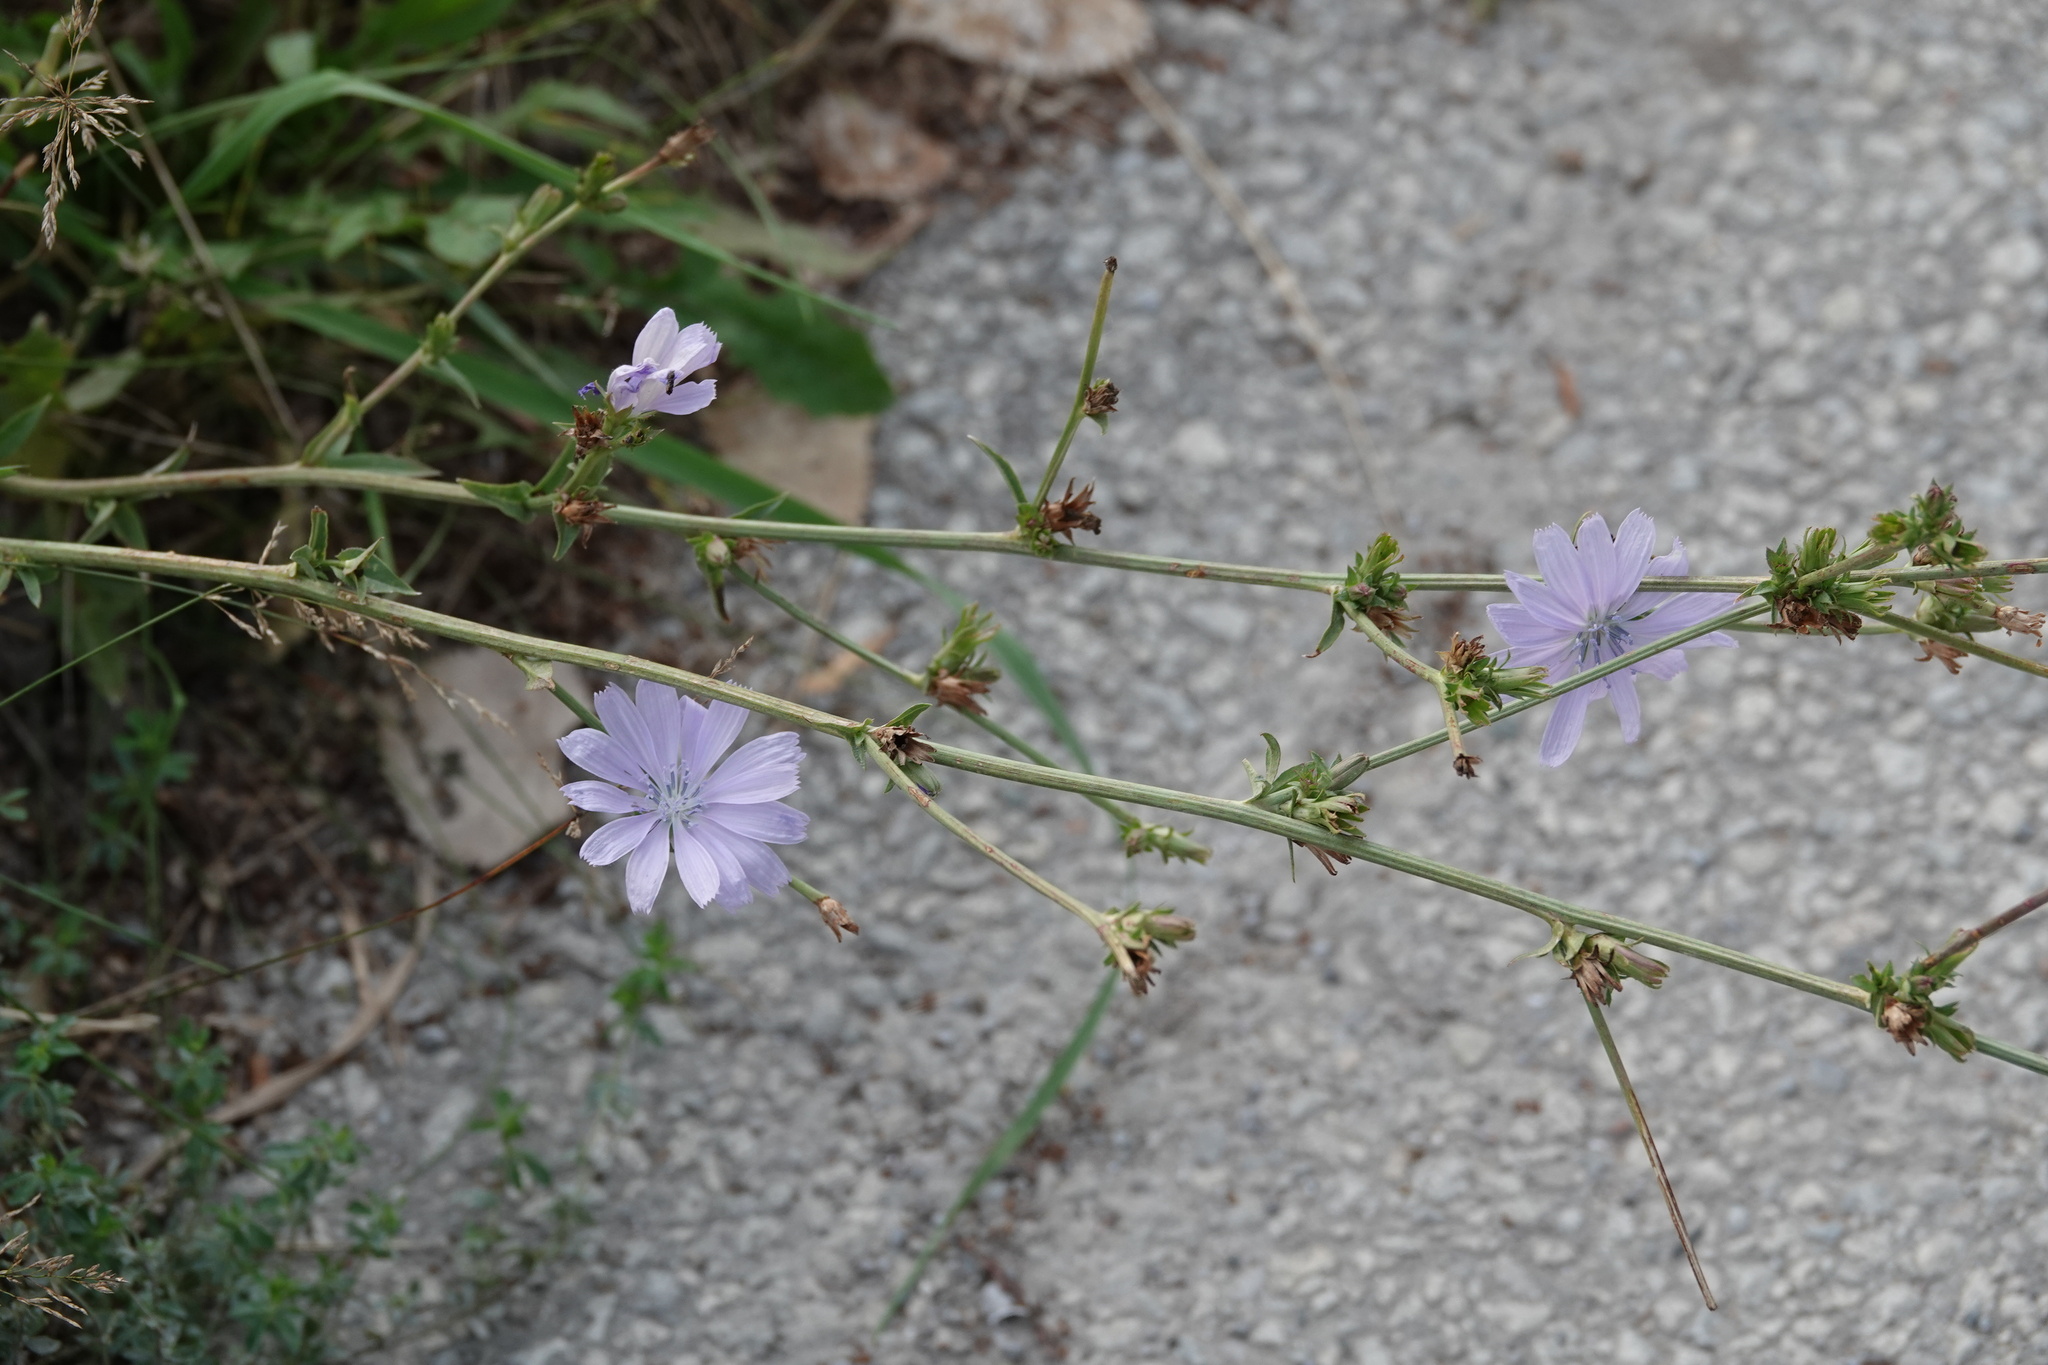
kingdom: Plantae
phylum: Tracheophyta
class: Magnoliopsida
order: Asterales
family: Asteraceae
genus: Cichorium
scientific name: Cichorium intybus
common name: Chicory
